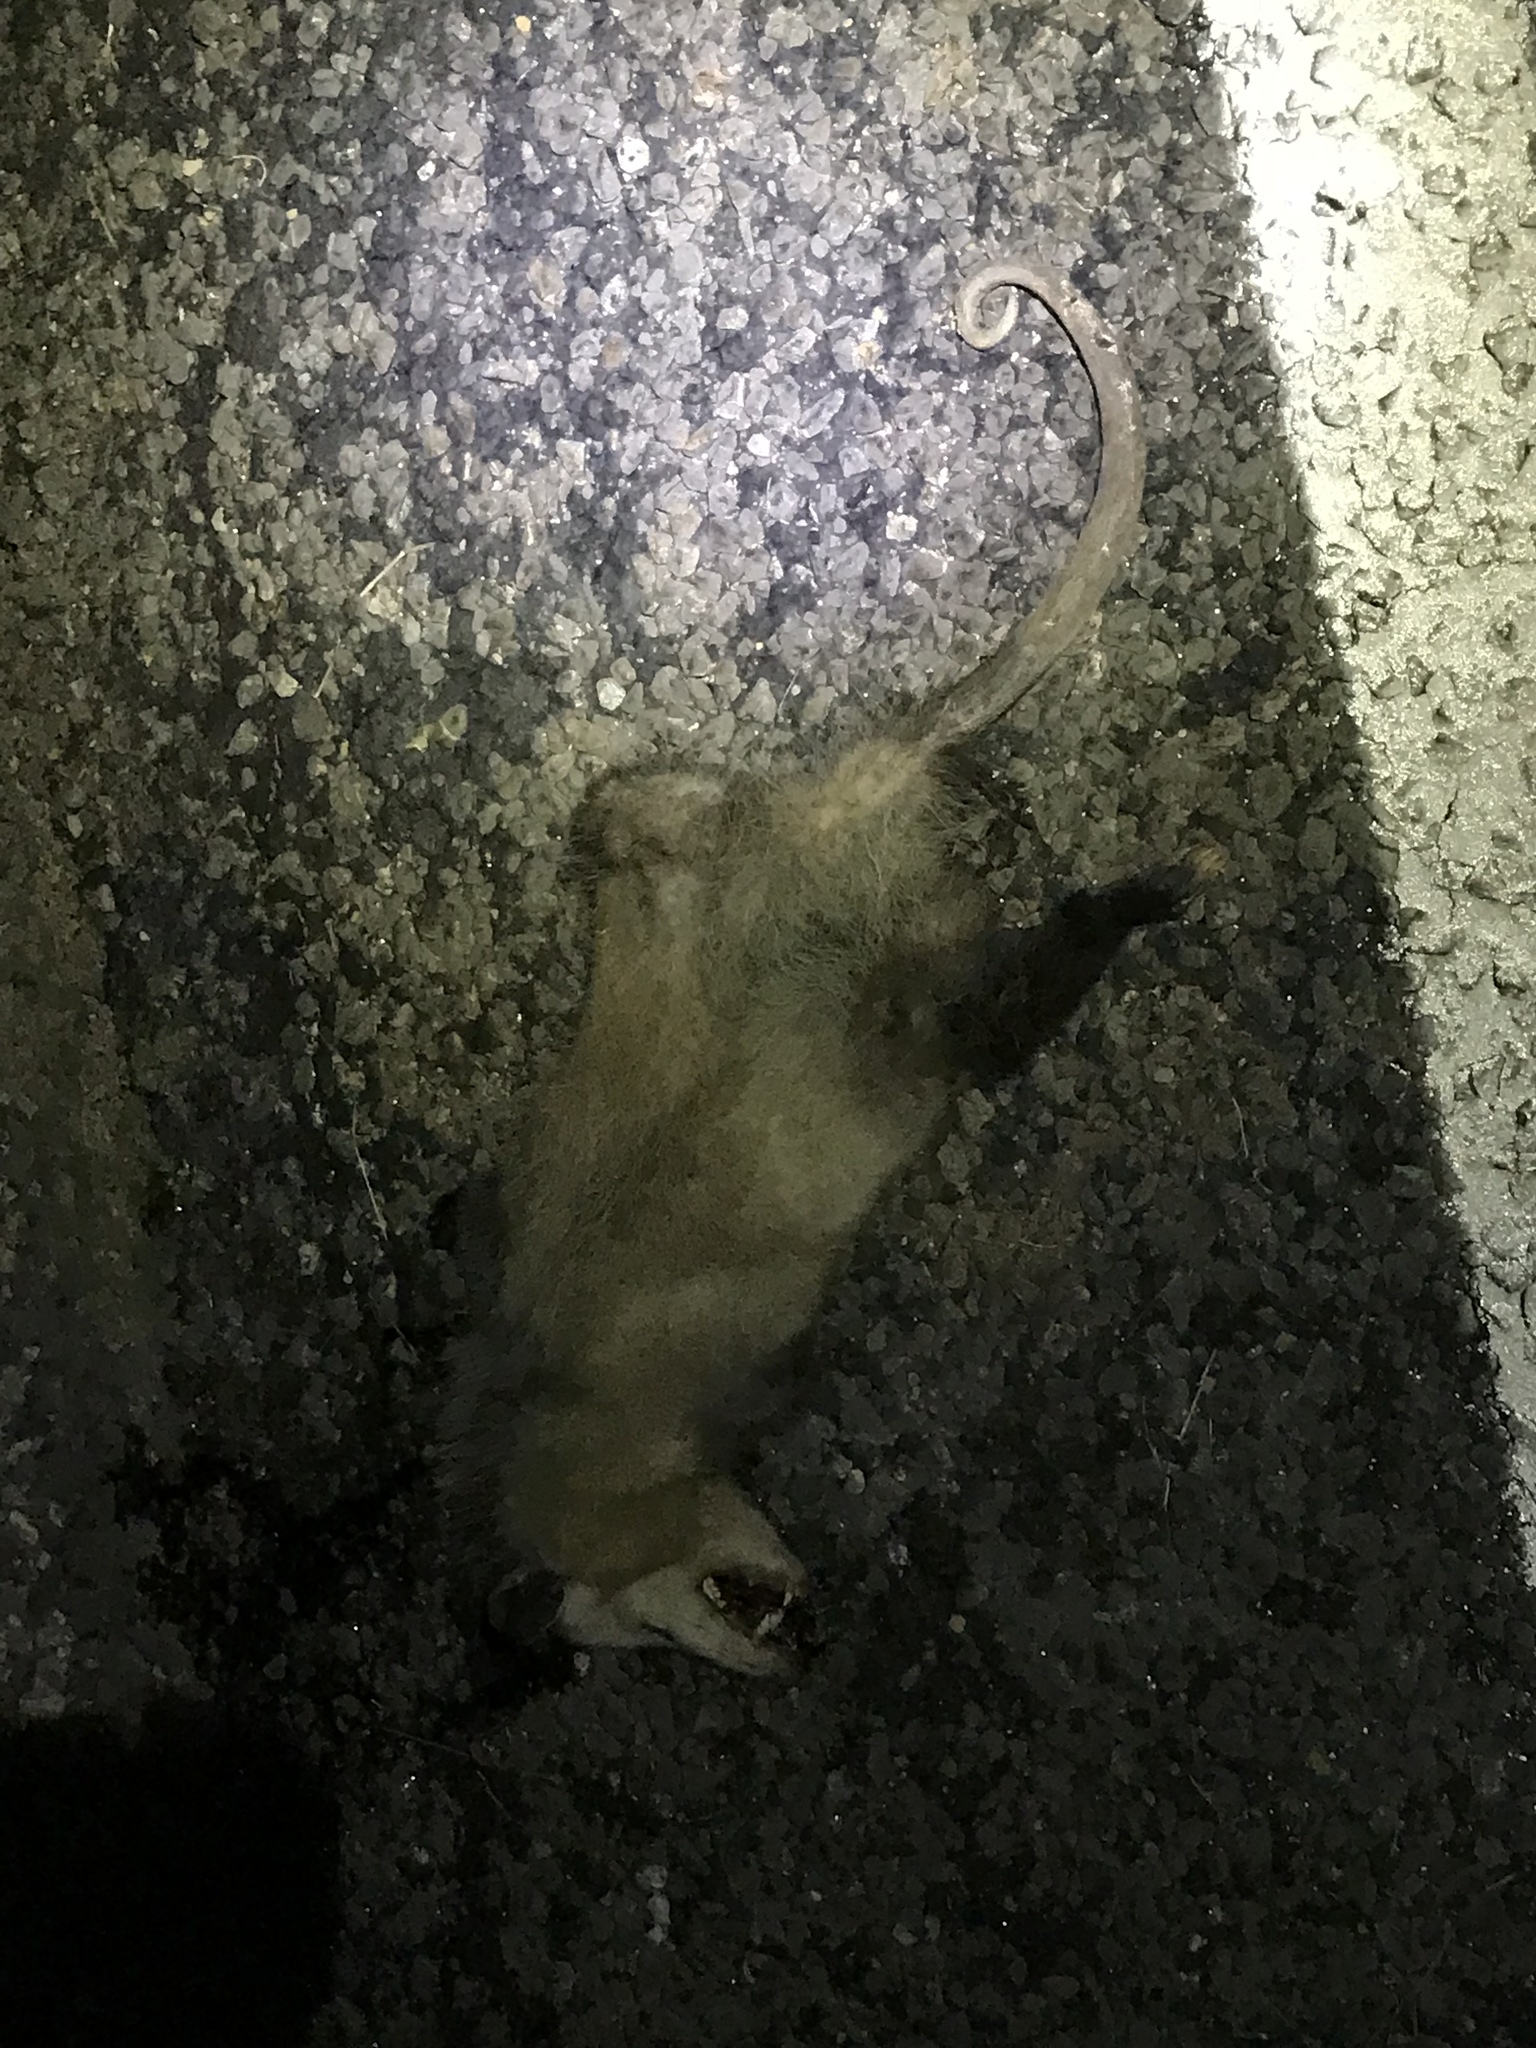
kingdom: Animalia
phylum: Chordata
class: Mammalia
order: Didelphimorphia
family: Didelphidae
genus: Didelphis
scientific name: Didelphis virginiana
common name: Virginia opossum
